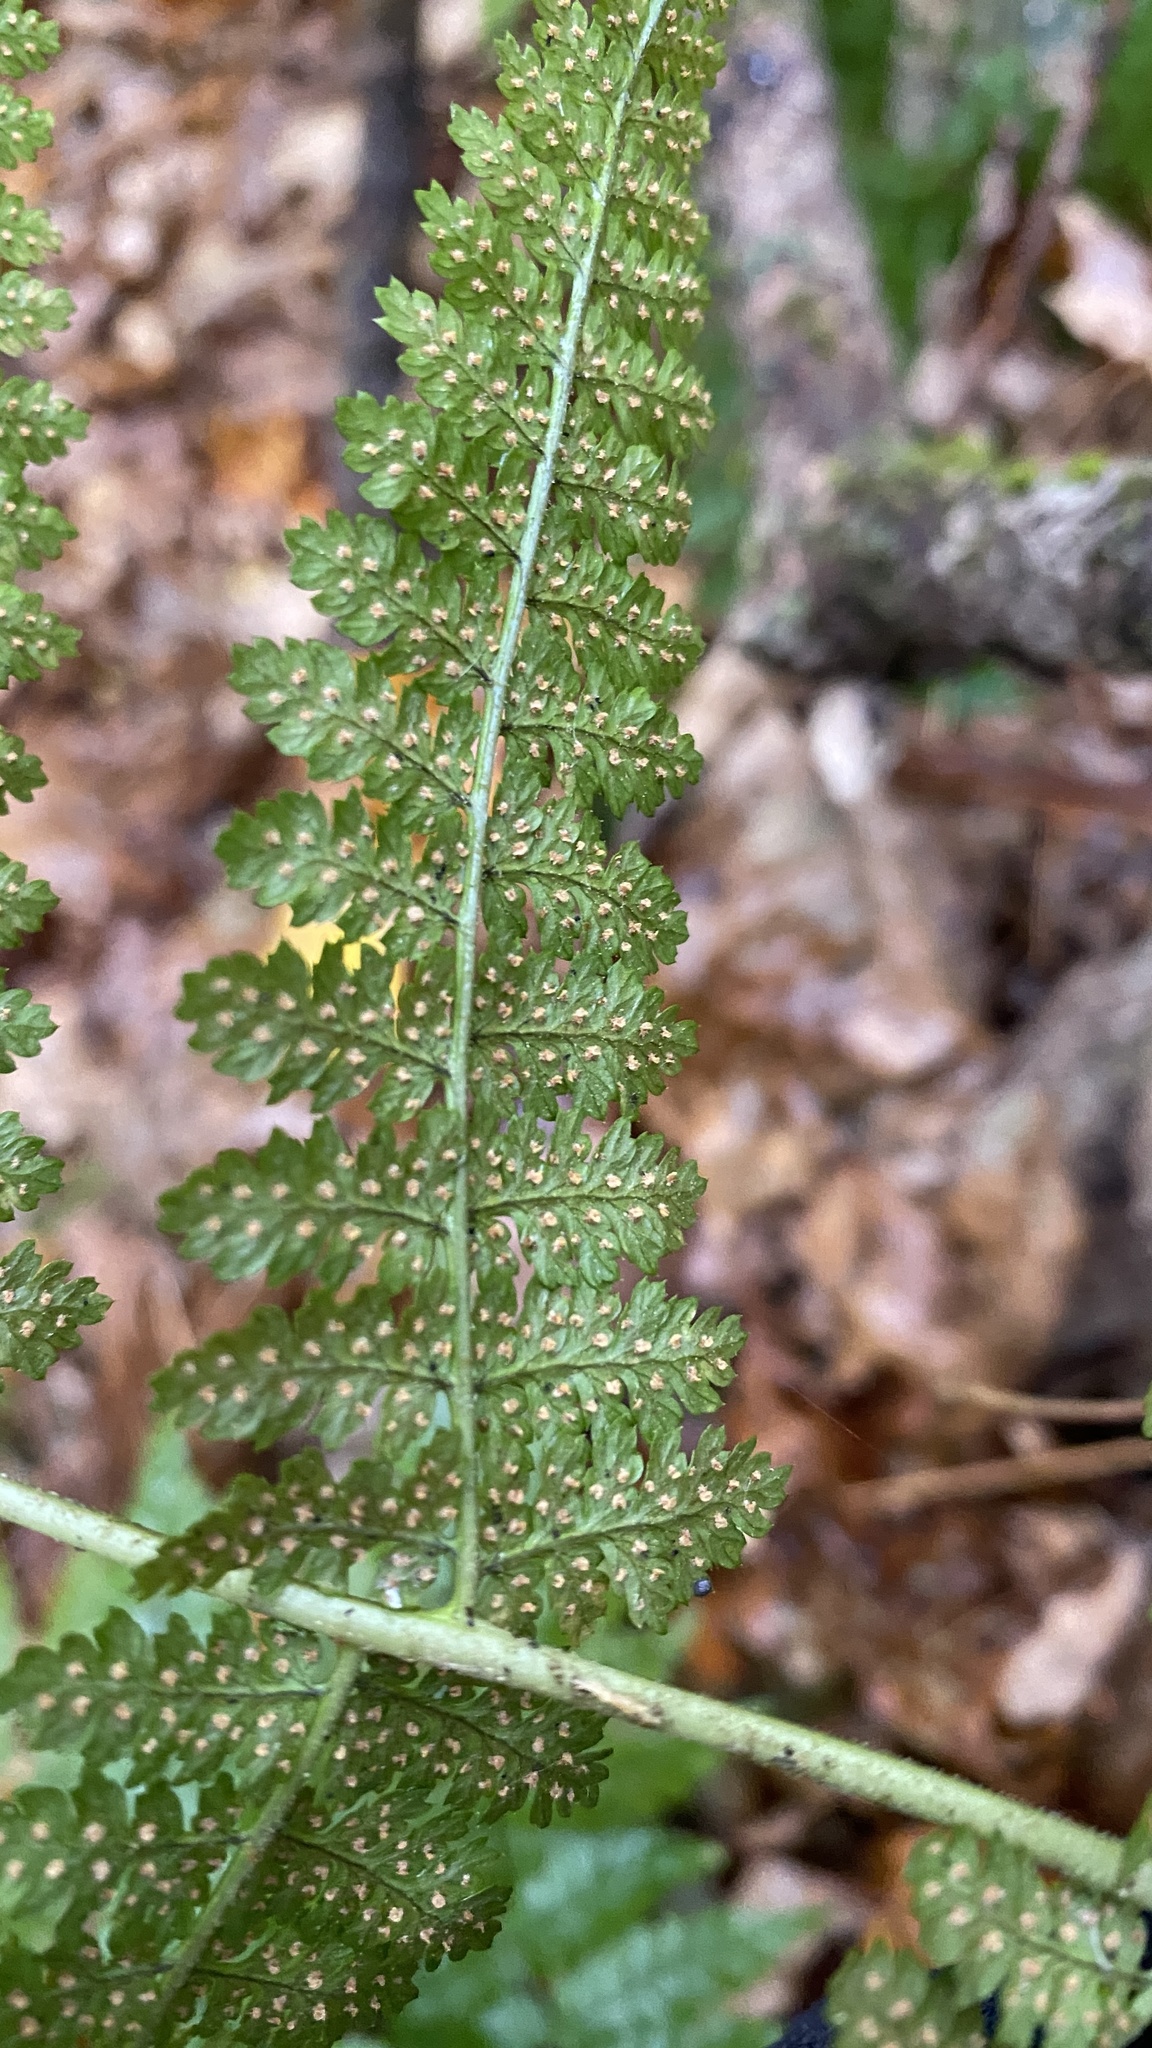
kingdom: Plantae
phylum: Tracheophyta
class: Polypodiopsida
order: Polypodiales
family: Dryopteridaceae
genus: Dryopteris
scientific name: Dryopteris intermedia
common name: Evergreen wood fern
